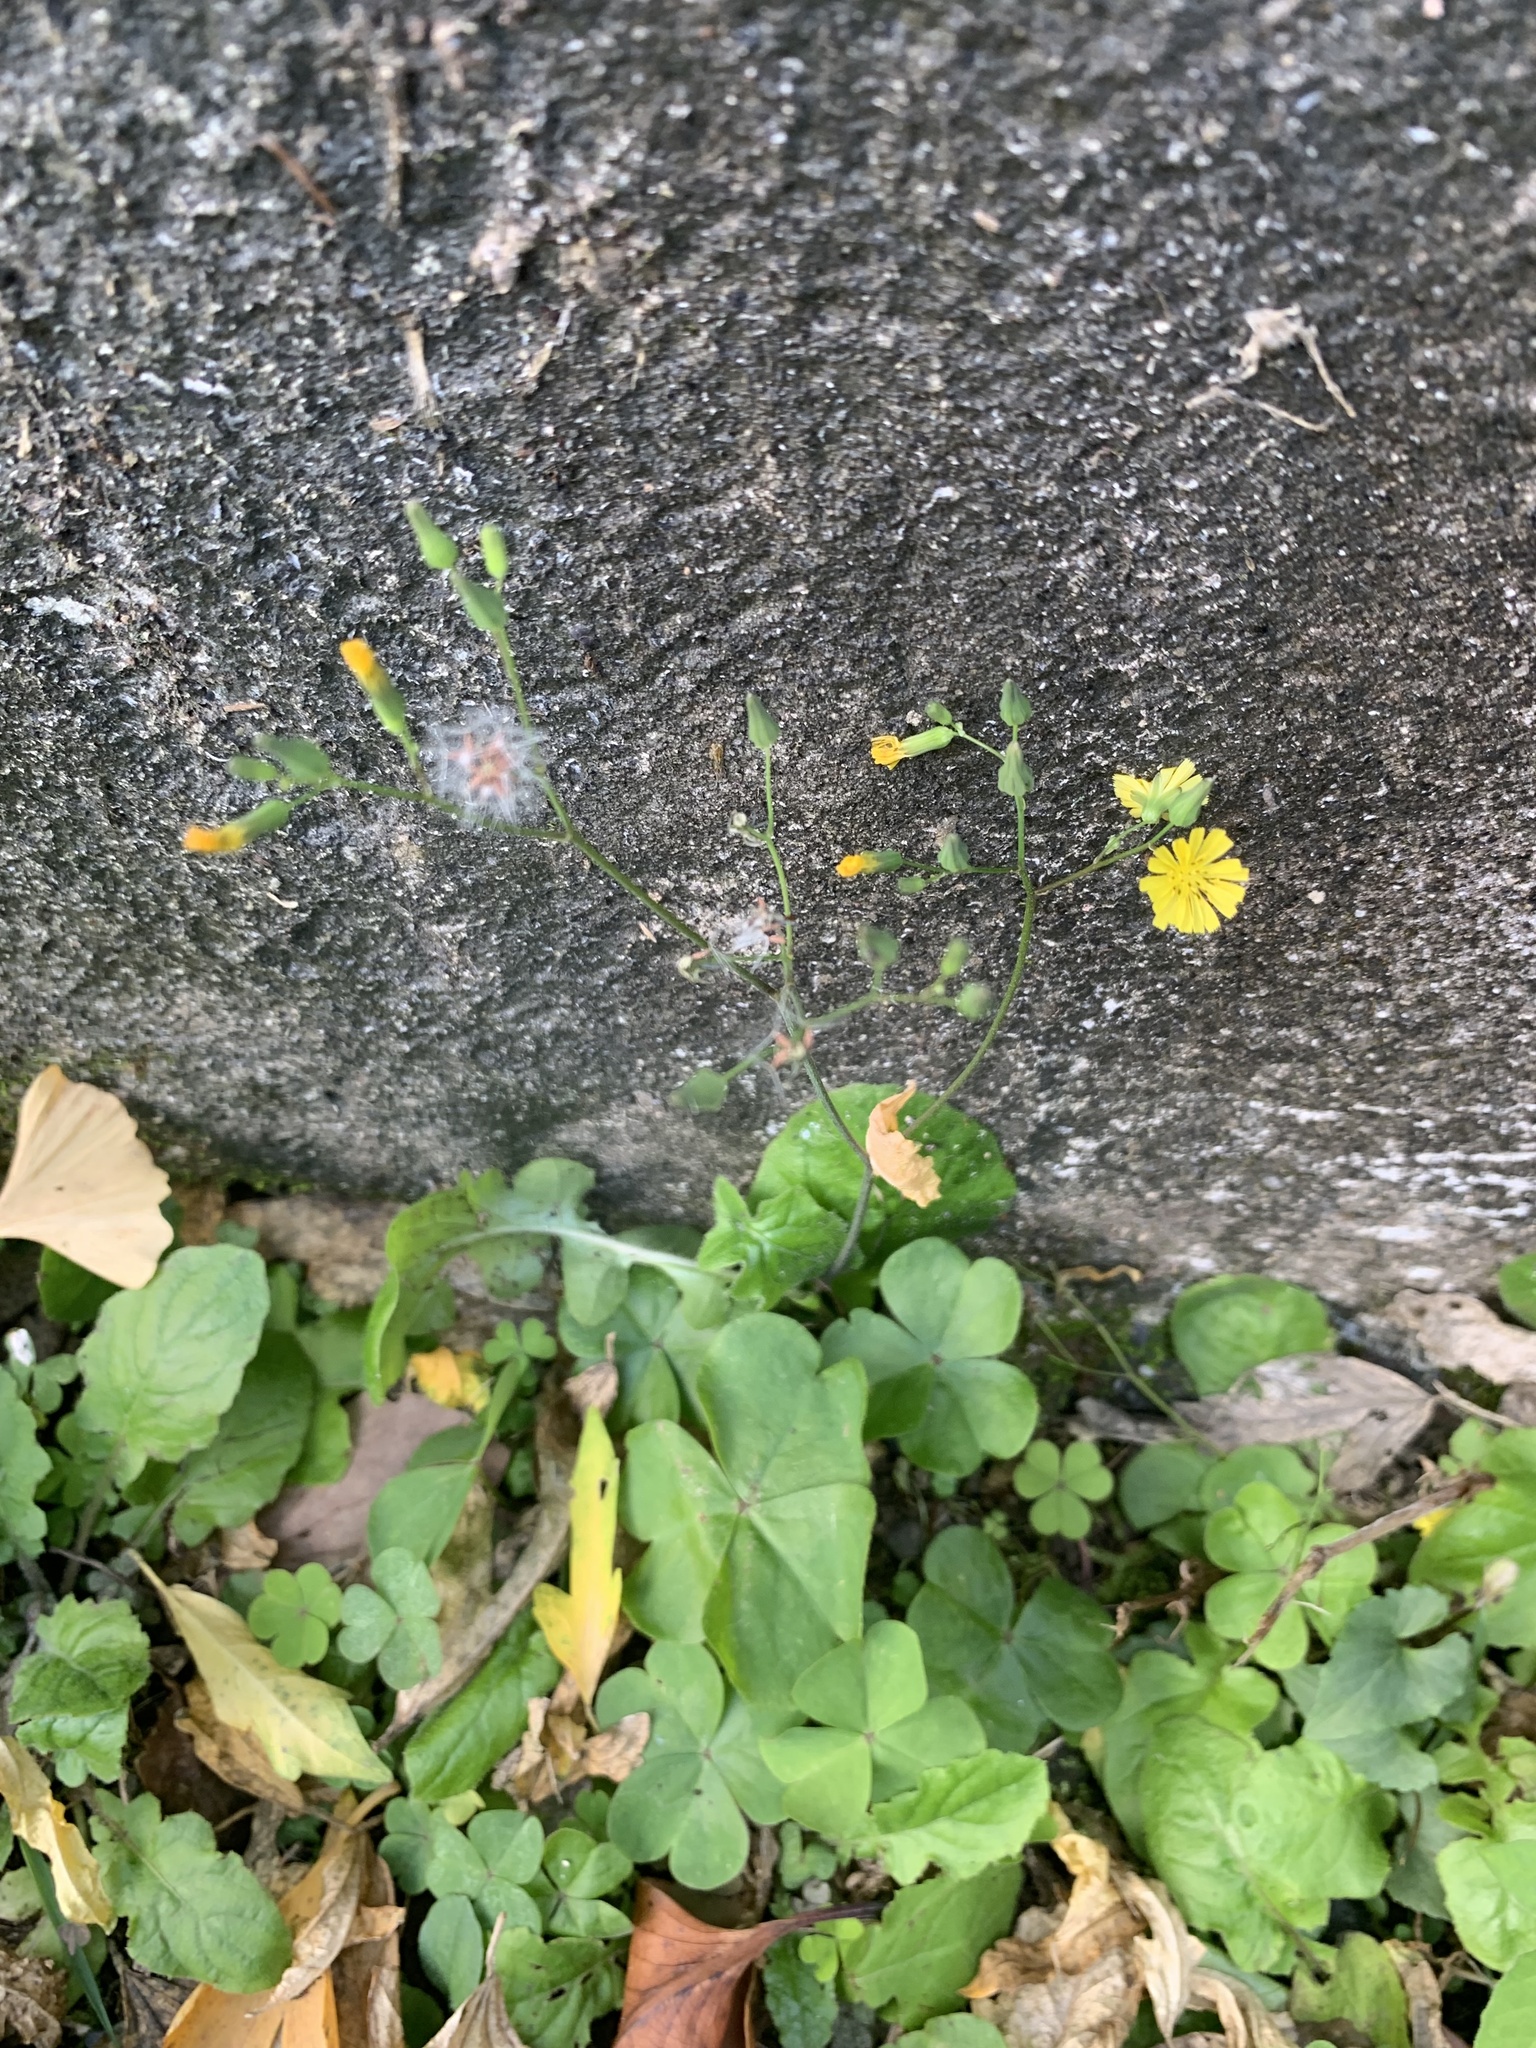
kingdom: Plantae
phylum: Tracheophyta
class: Magnoliopsida
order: Asterales
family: Asteraceae
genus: Youngia
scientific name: Youngia japonica
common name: Oriental false hawksbeard
